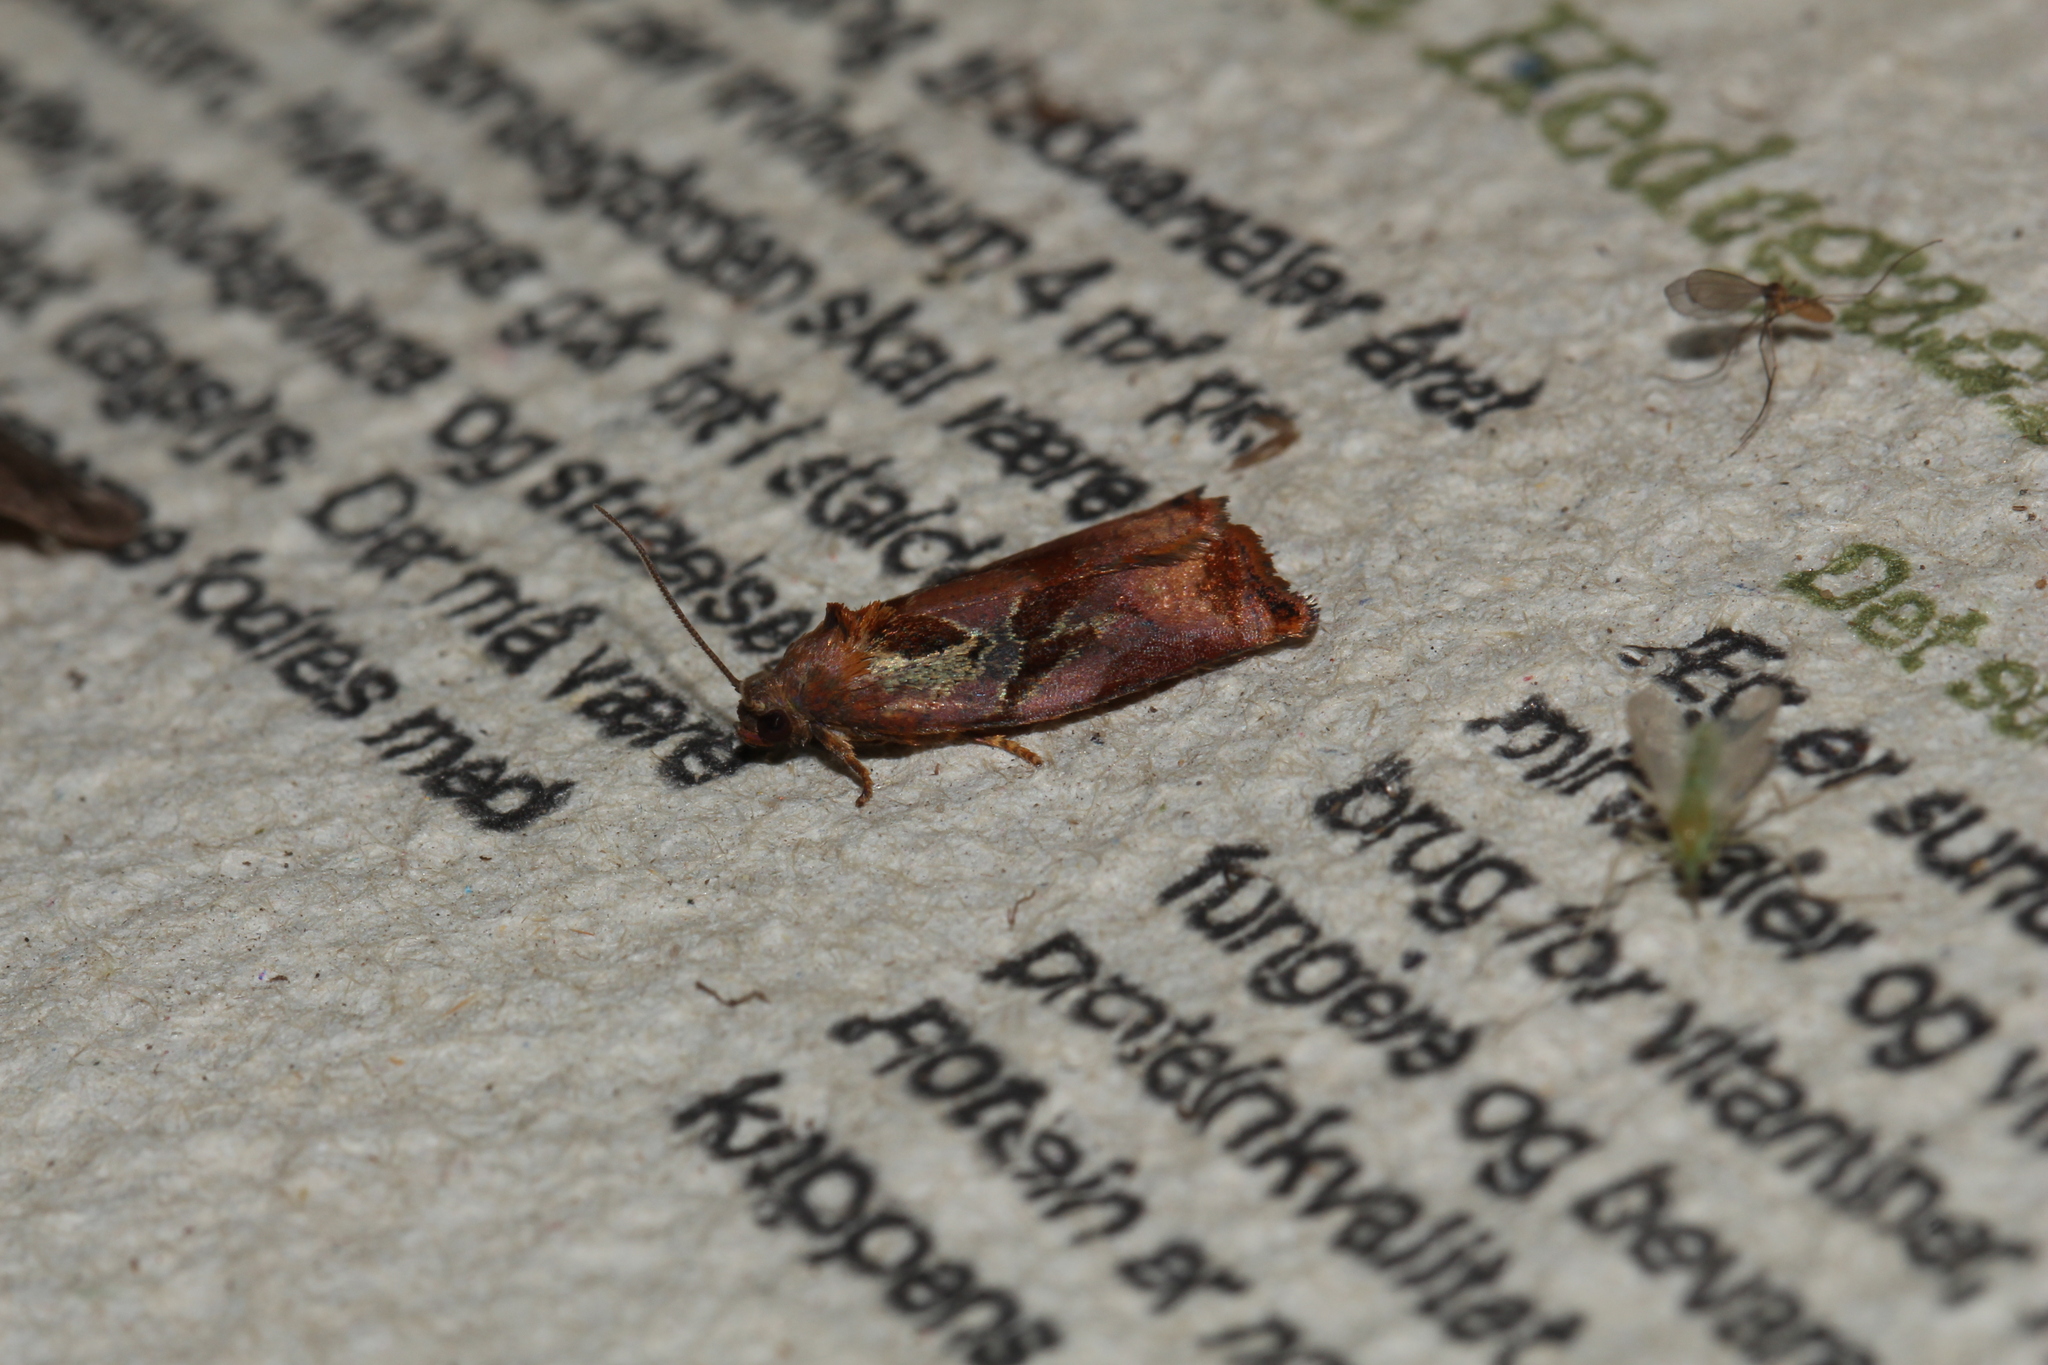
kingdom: Animalia
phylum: Arthropoda
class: Insecta
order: Lepidoptera
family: Tortricidae
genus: Archips
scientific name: Archips podana
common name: Large fruit-tree tortrix
